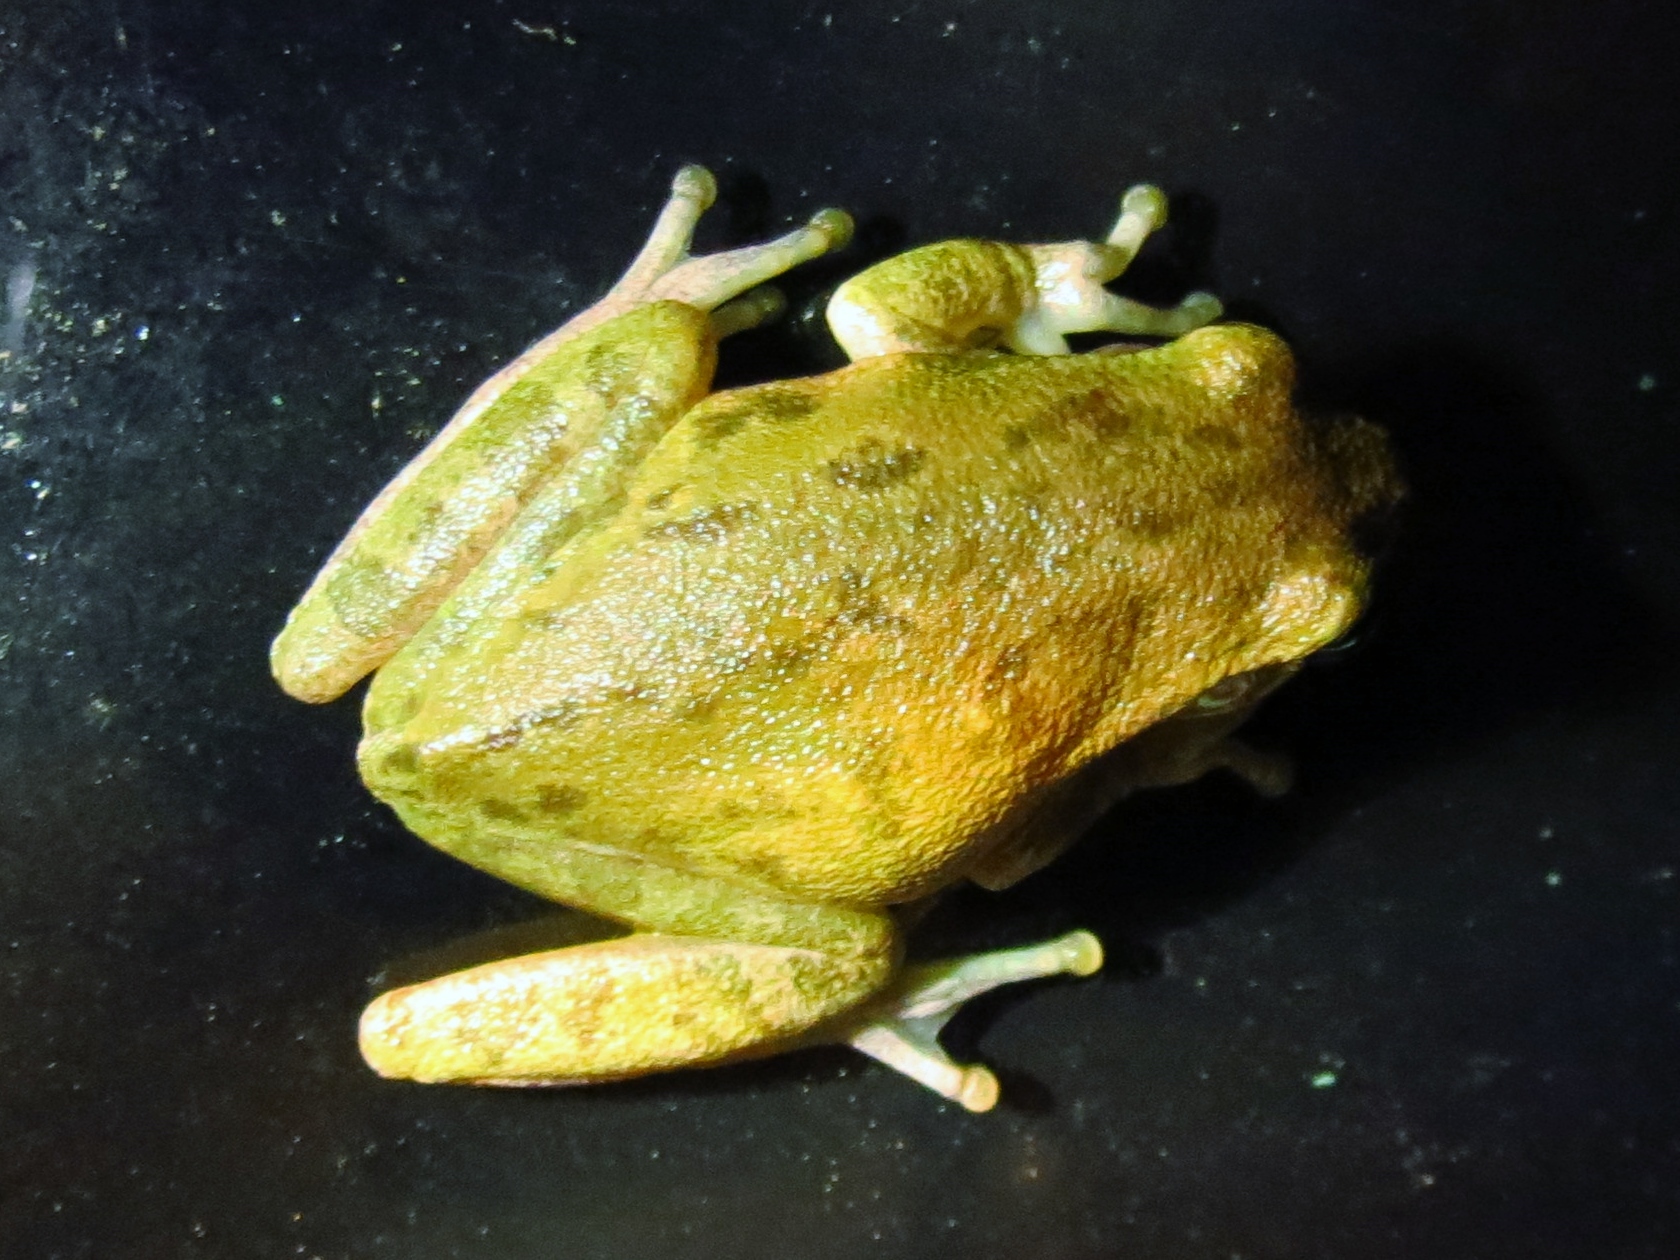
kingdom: Animalia
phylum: Chordata
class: Amphibia
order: Anura
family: Hylidae
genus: Dryophytes
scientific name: Dryophytes squirellus
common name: Squirrel treefrog
